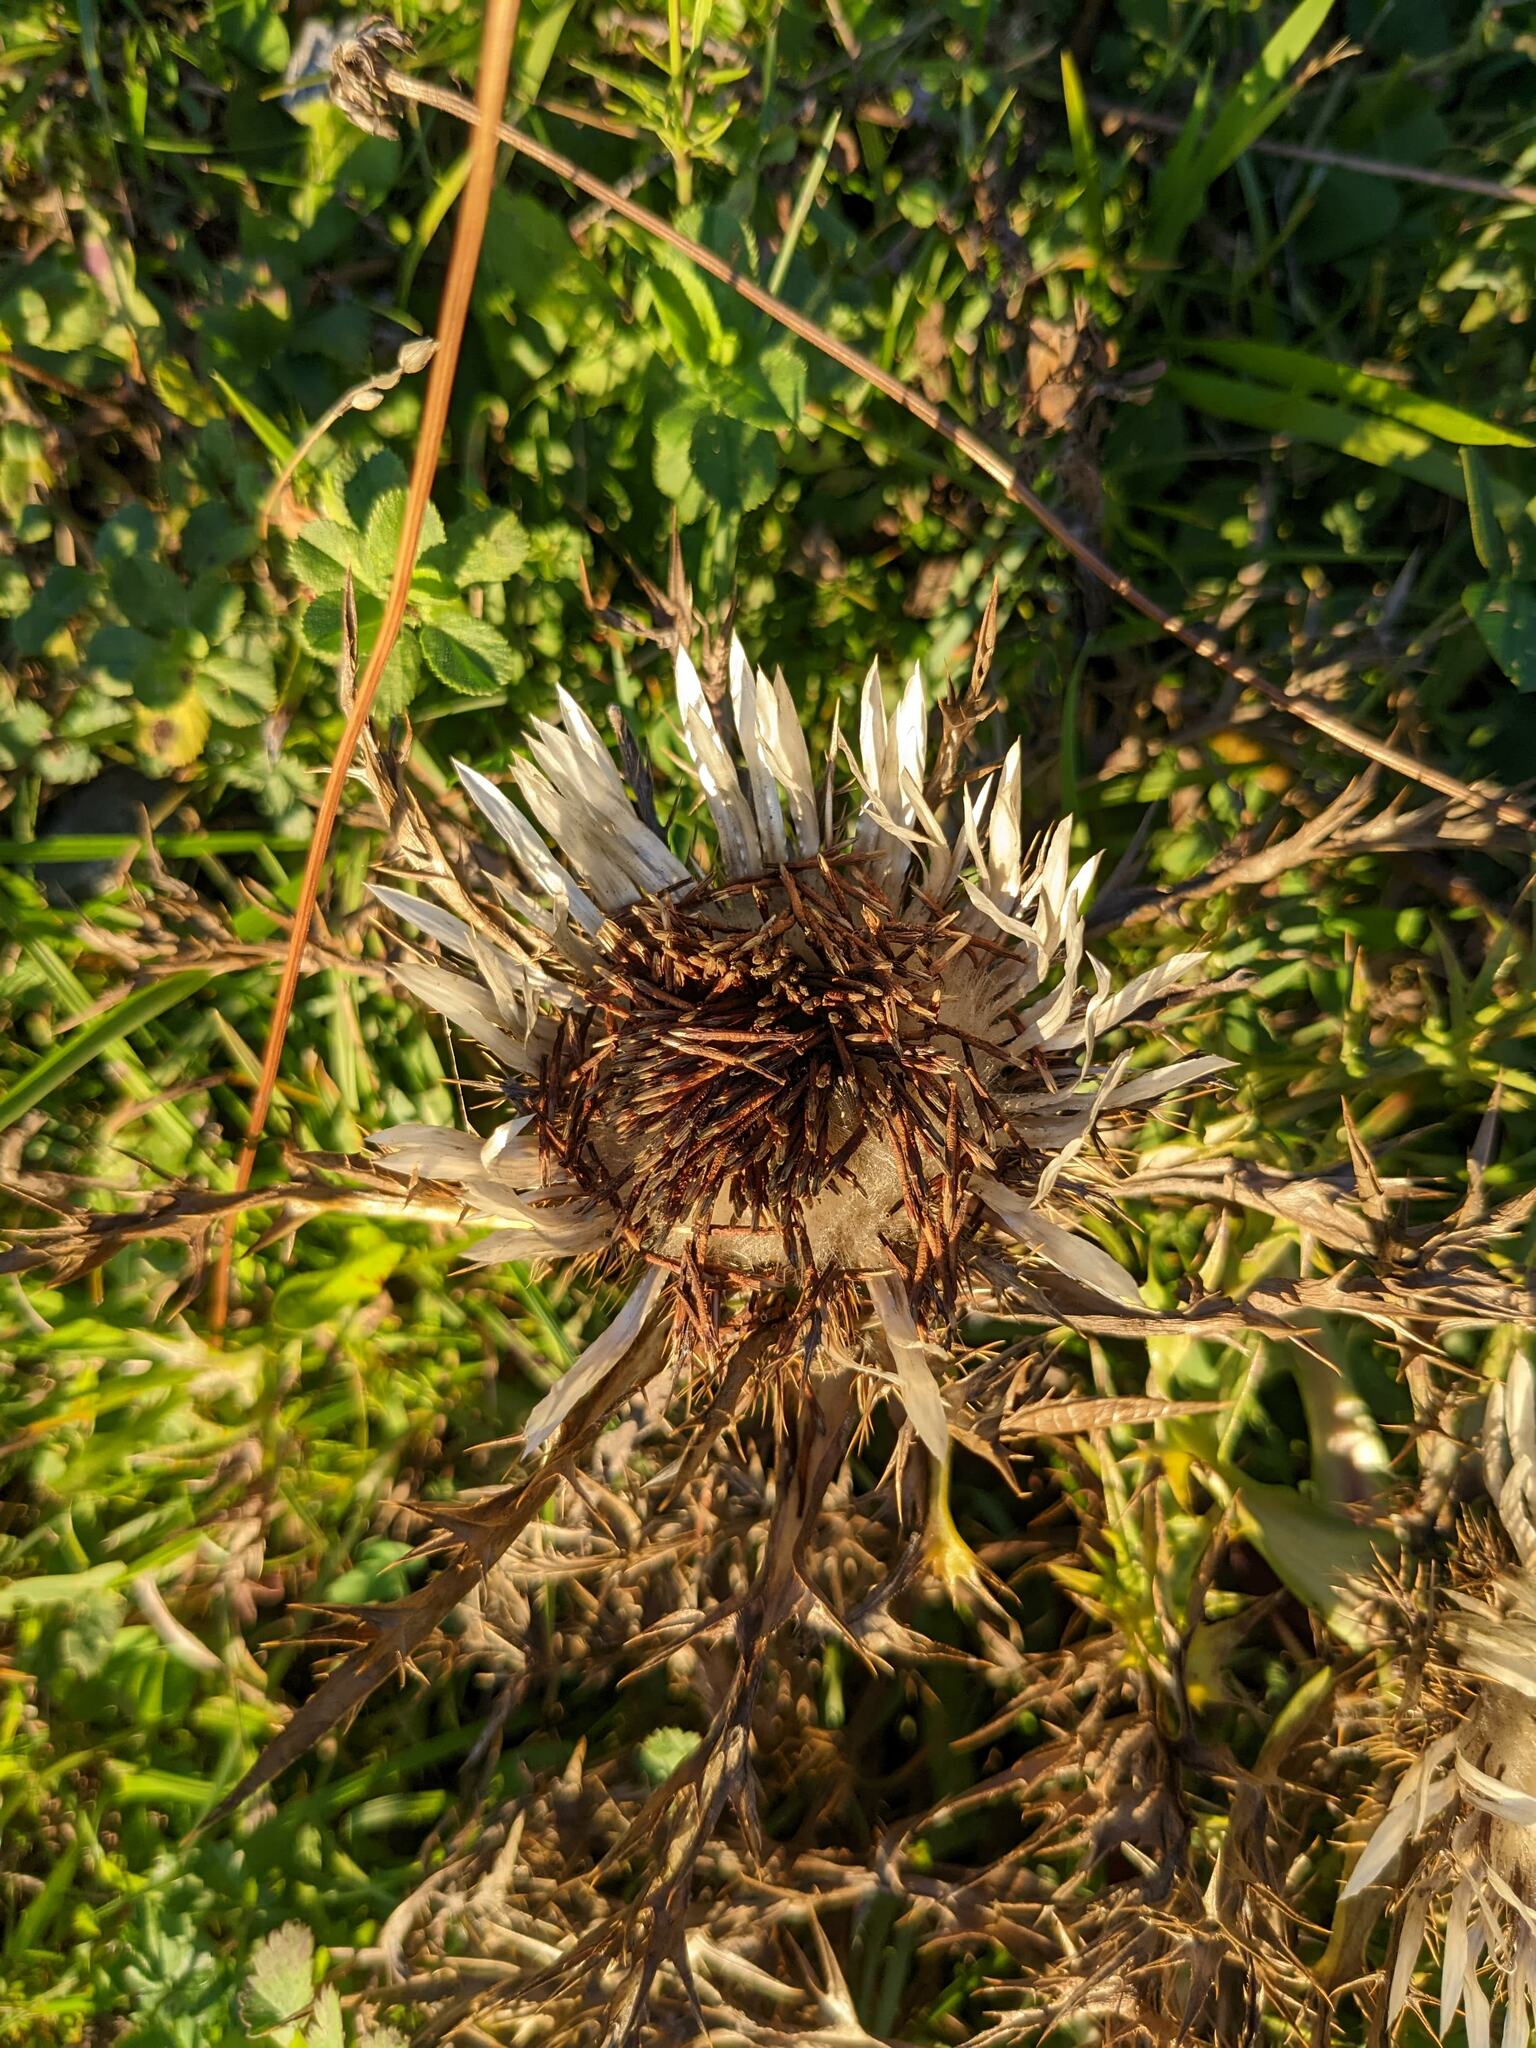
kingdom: Plantae
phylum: Tracheophyta
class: Magnoliopsida
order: Asterales
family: Asteraceae
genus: Carlina
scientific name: Carlina acaulis
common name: Stemless carline thistle
